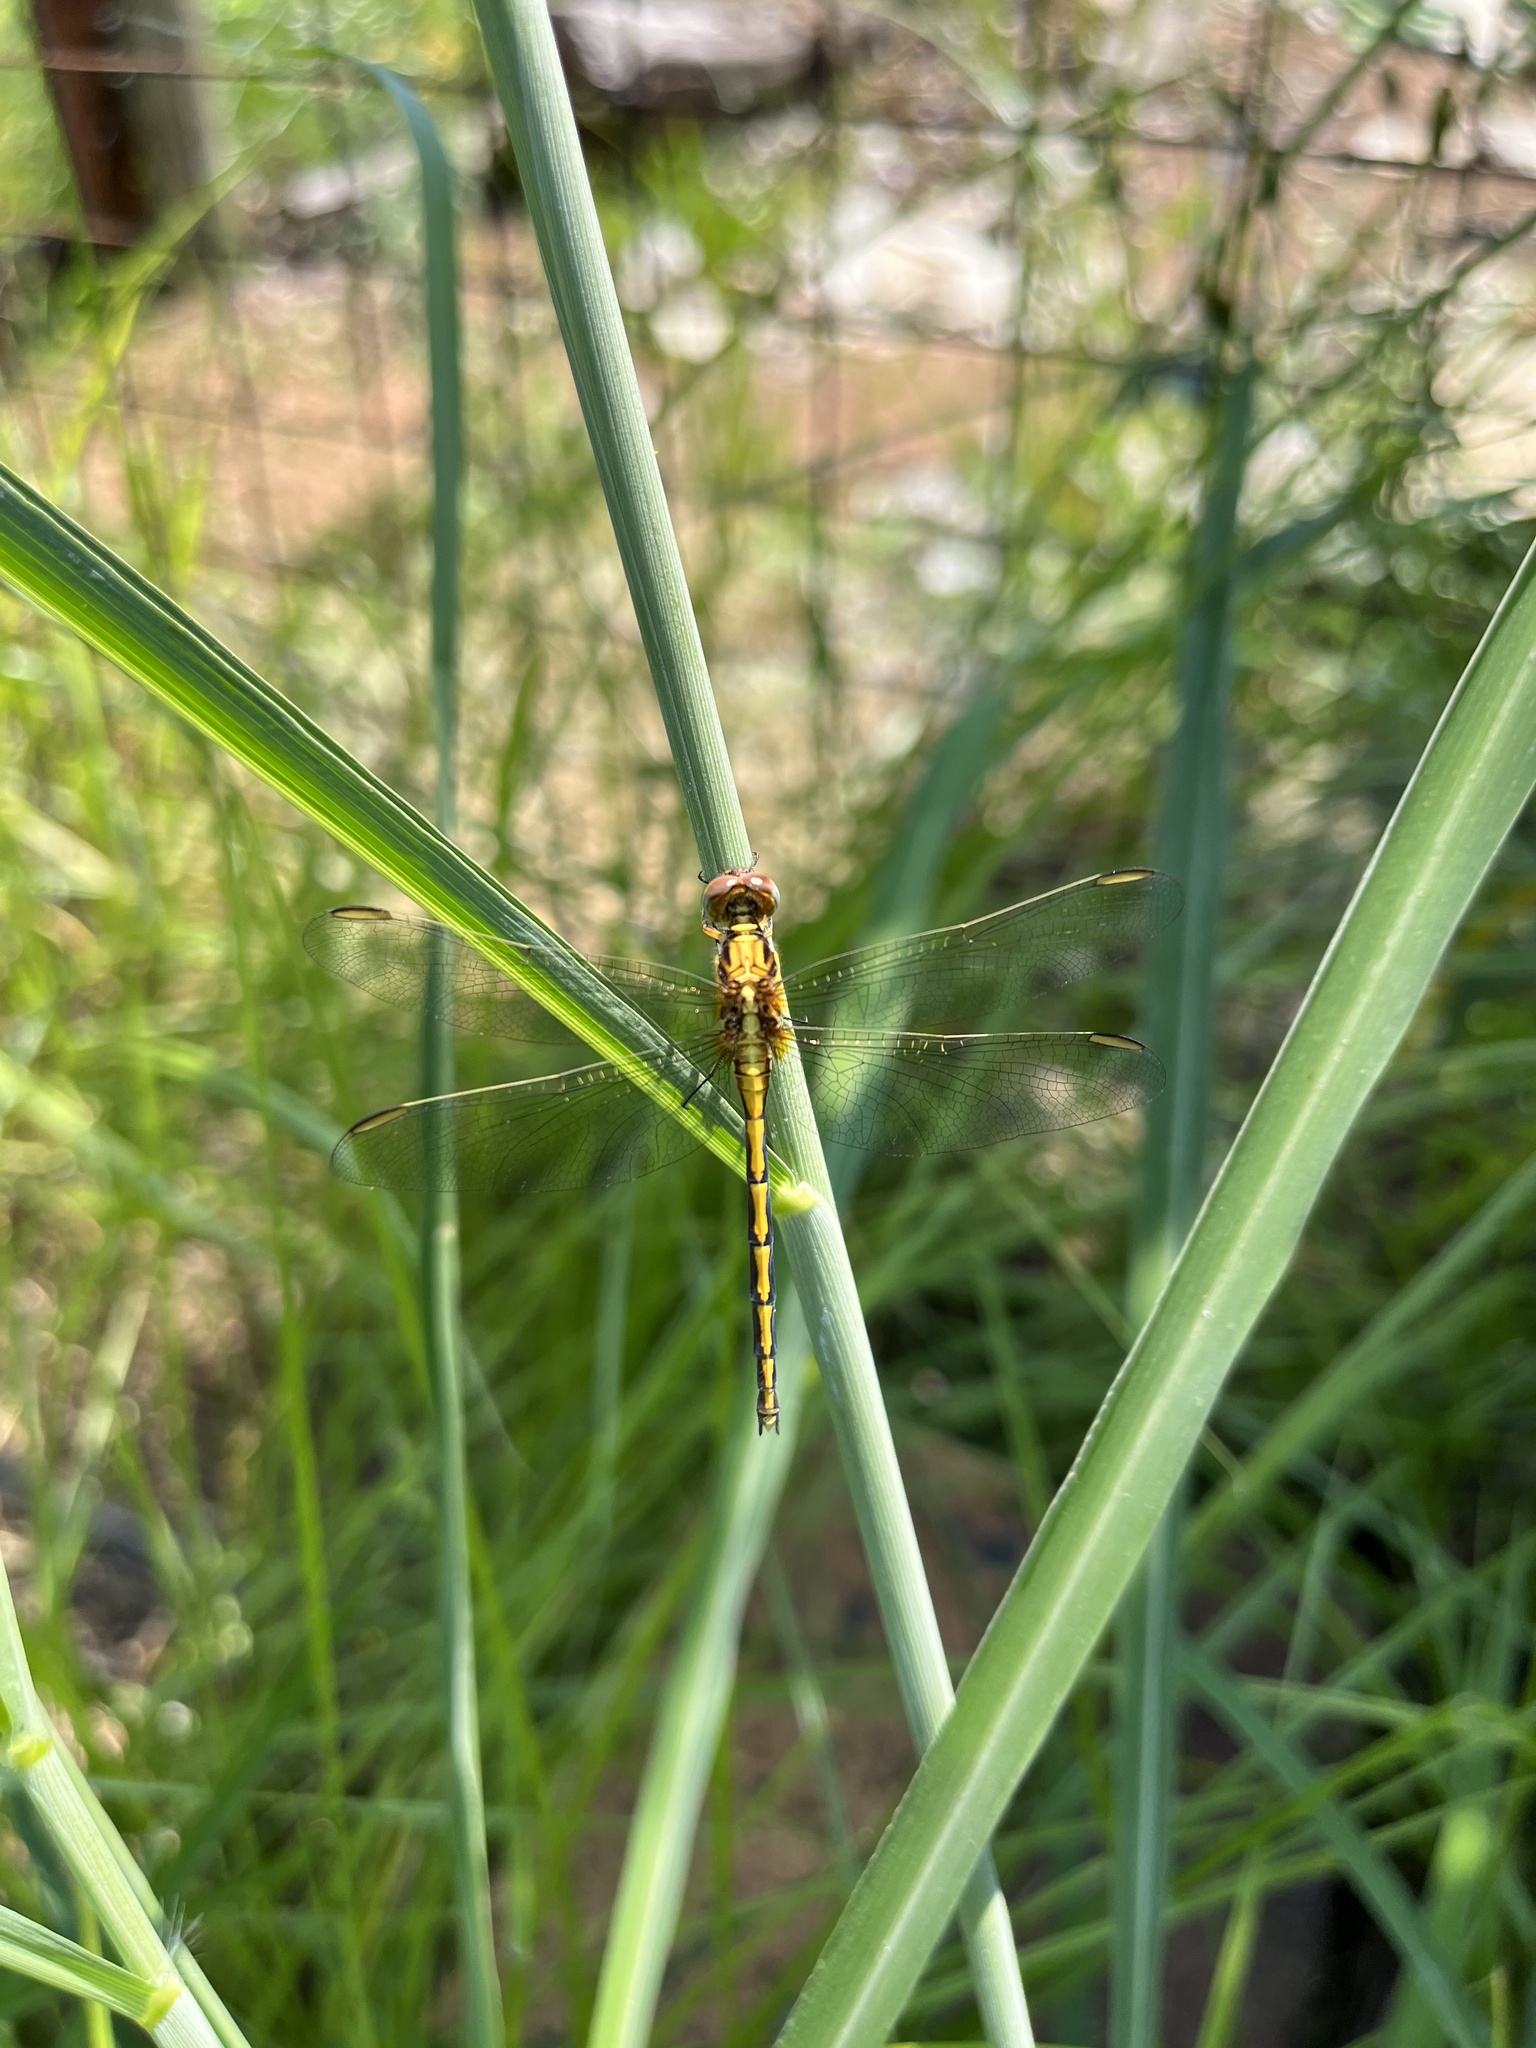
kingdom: Animalia
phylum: Arthropoda
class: Insecta
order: Odonata
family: Libellulidae
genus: Orthetrum
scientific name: Orthetrum hintzi
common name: Dark-shouldered skimmer
